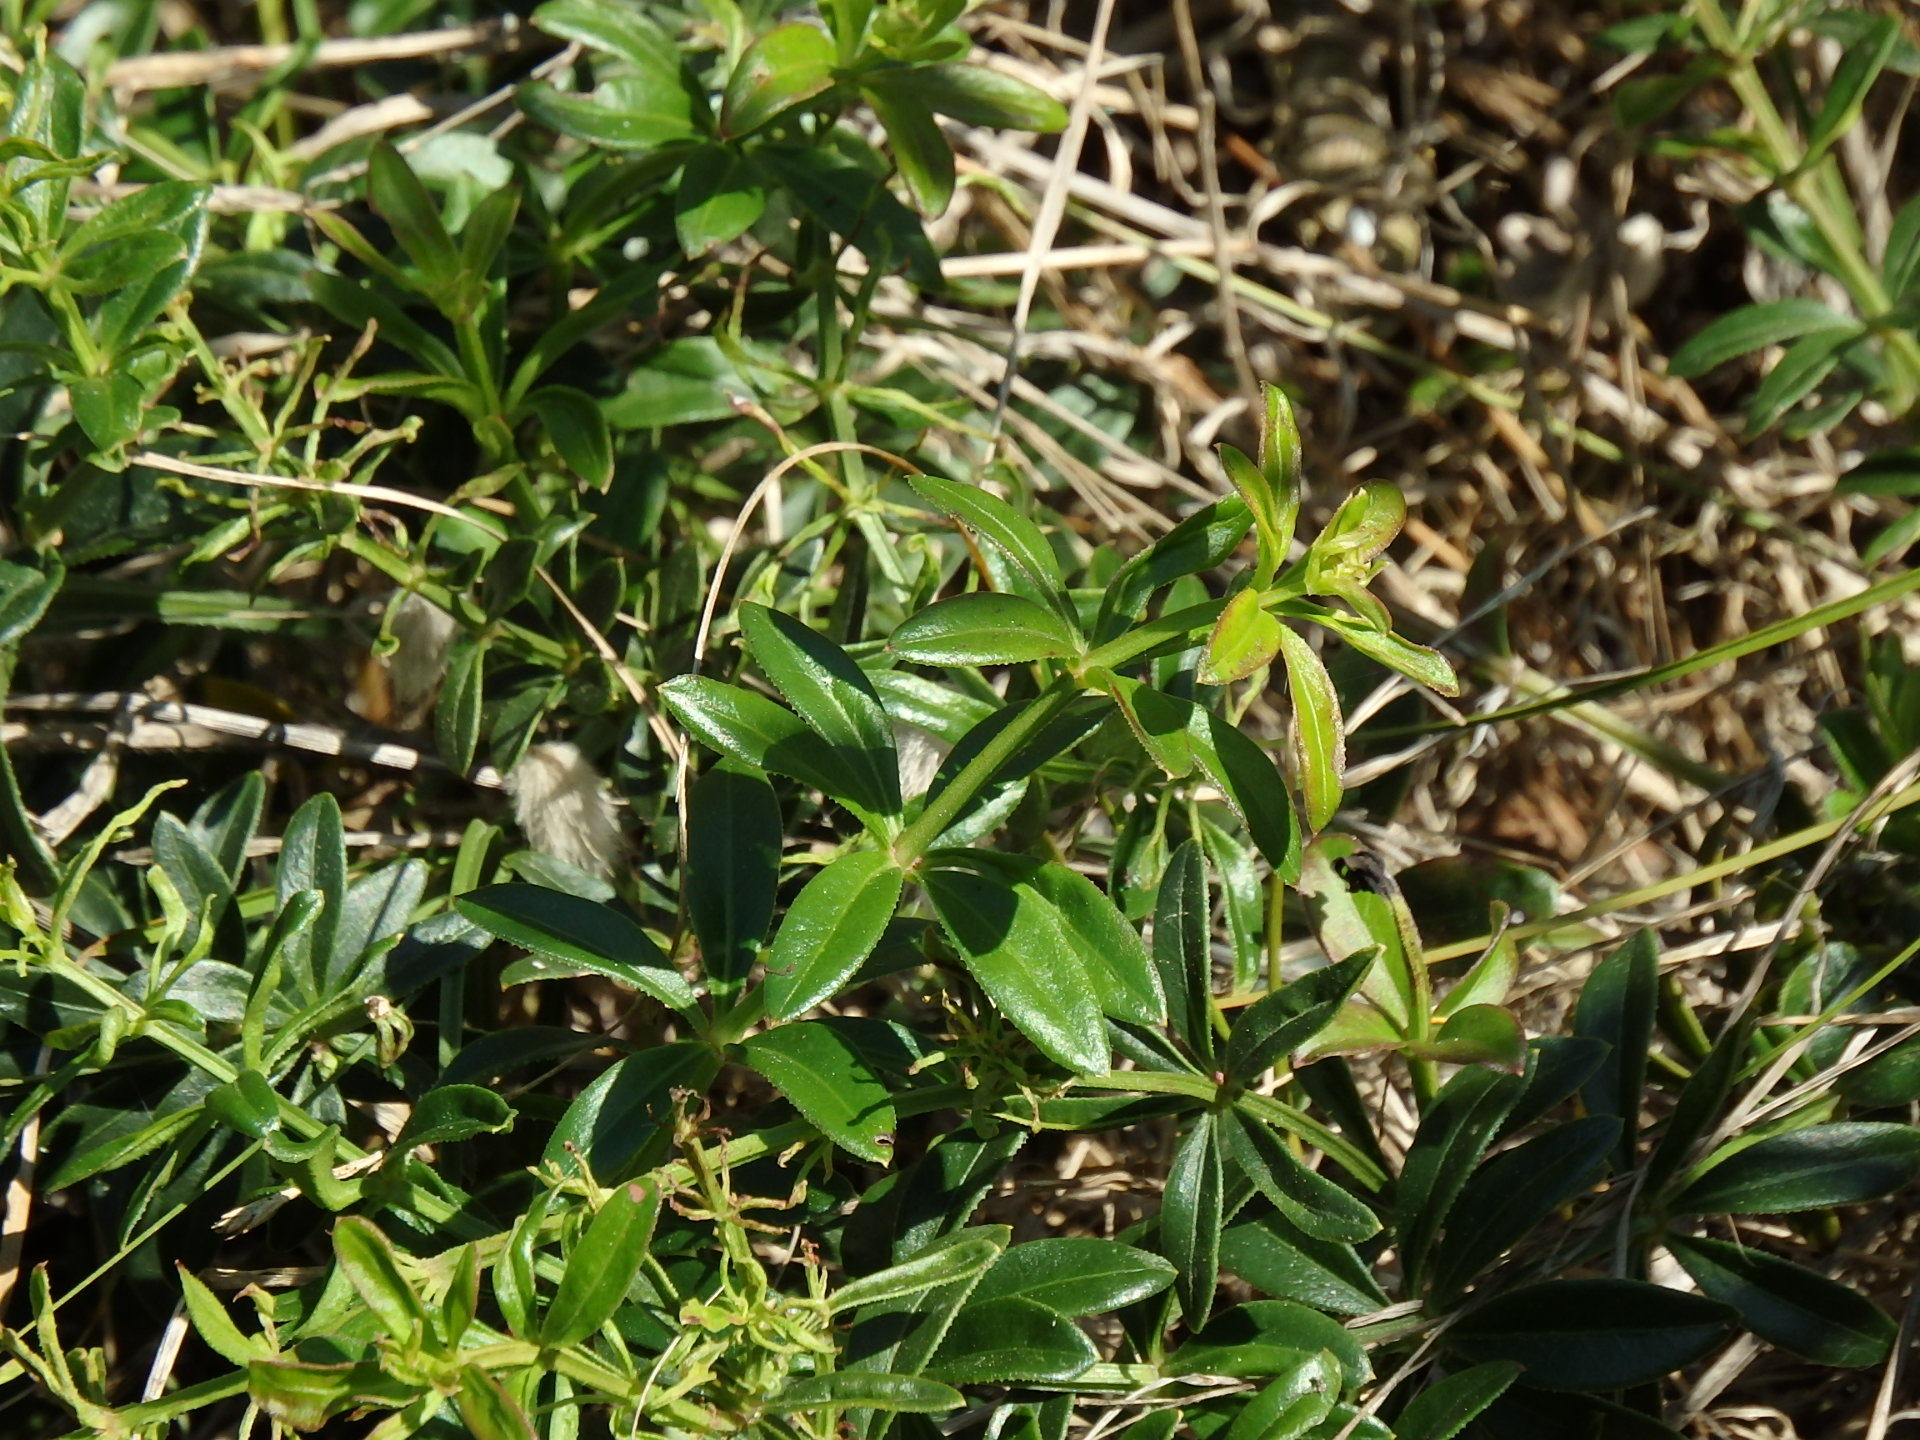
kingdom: Plantae
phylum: Tracheophyta
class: Magnoliopsida
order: Gentianales
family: Rubiaceae
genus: Rubia
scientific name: Rubia peregrina
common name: Wild madder
